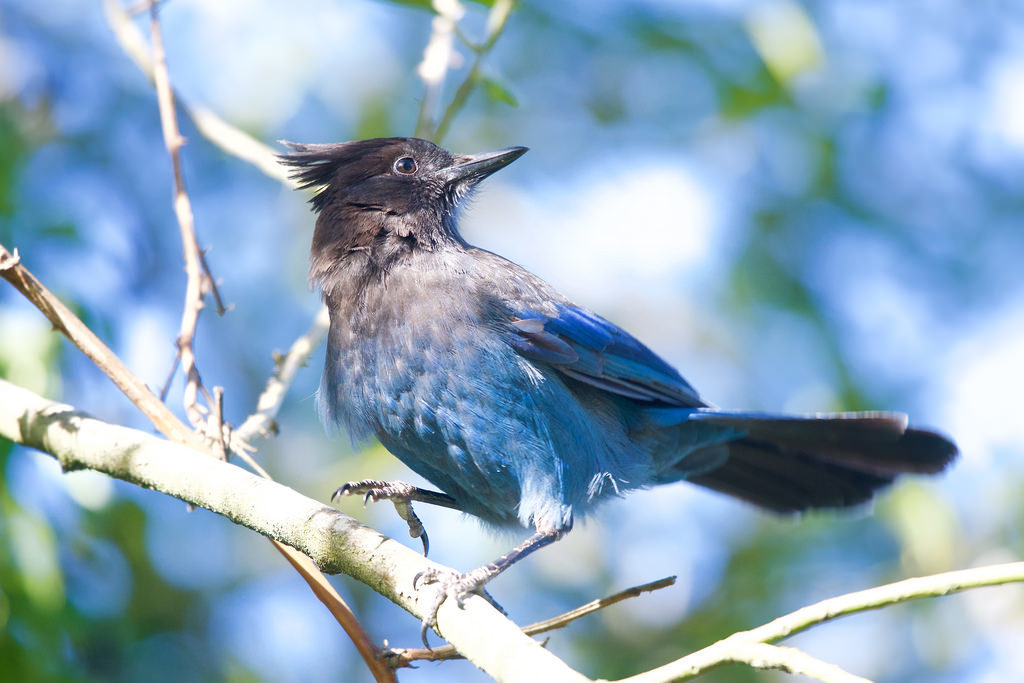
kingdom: Animalia
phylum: Chordata
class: Aves
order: Passeriformes
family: Corvidae
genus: Cyanocitta
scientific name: Cyanocitta stelleri
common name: Steller's jay
